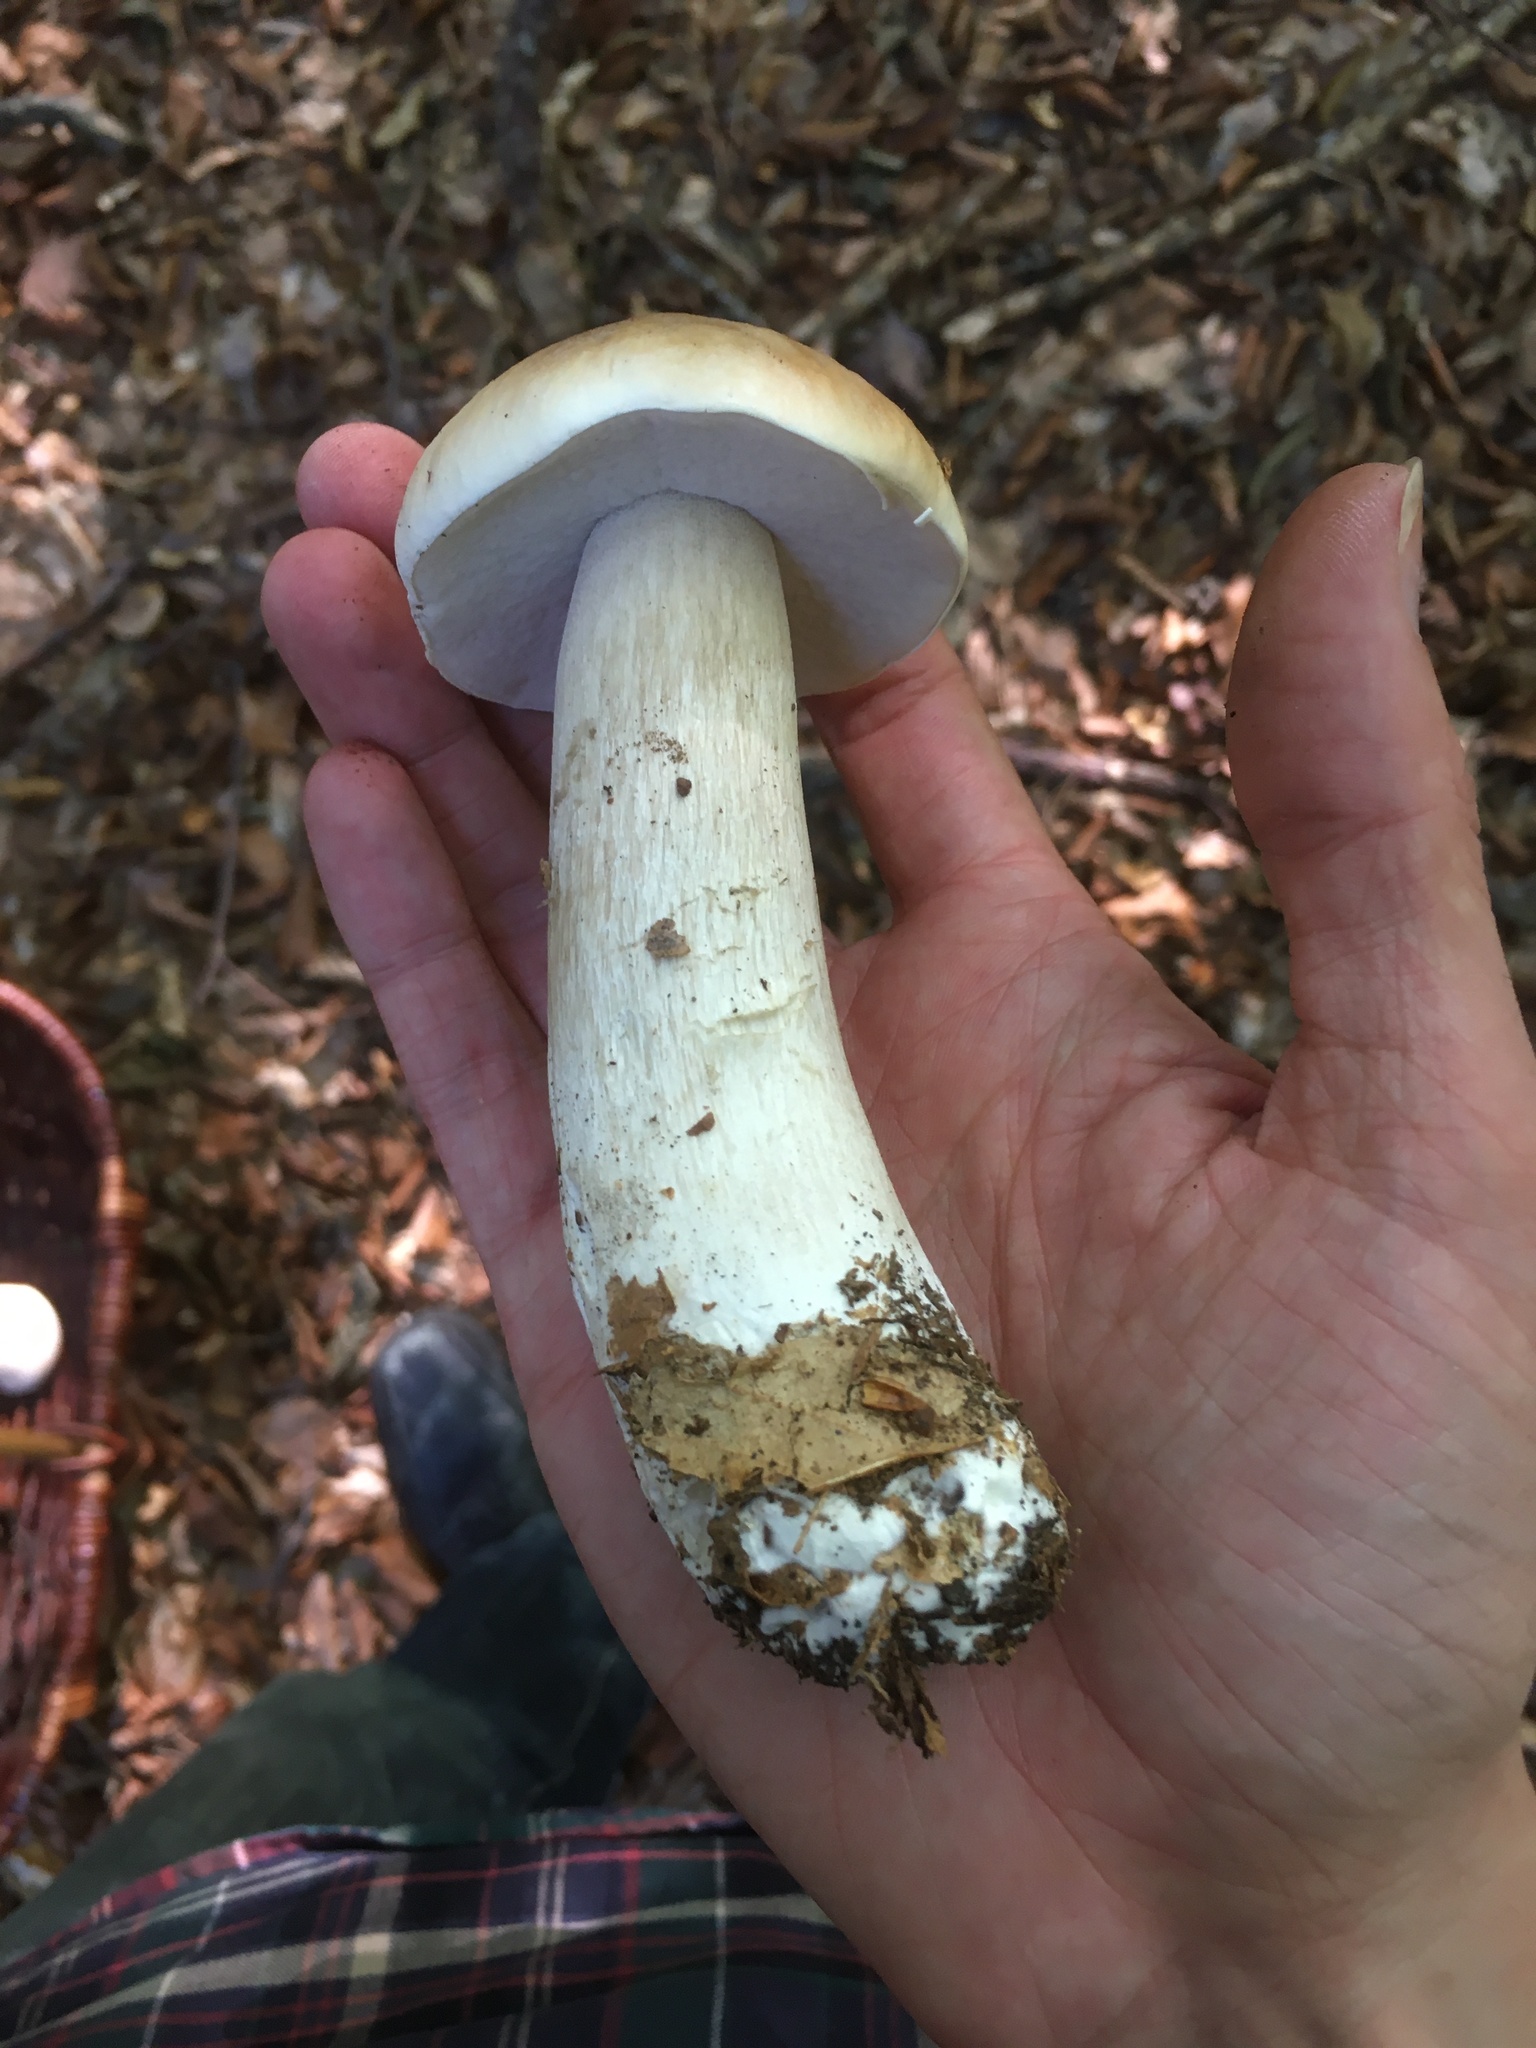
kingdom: Fungi
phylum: Basidiomycota
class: Agaricomycetes
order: Boletales
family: Boletaceae
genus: Boletus
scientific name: Boletus edulis
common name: Cep
